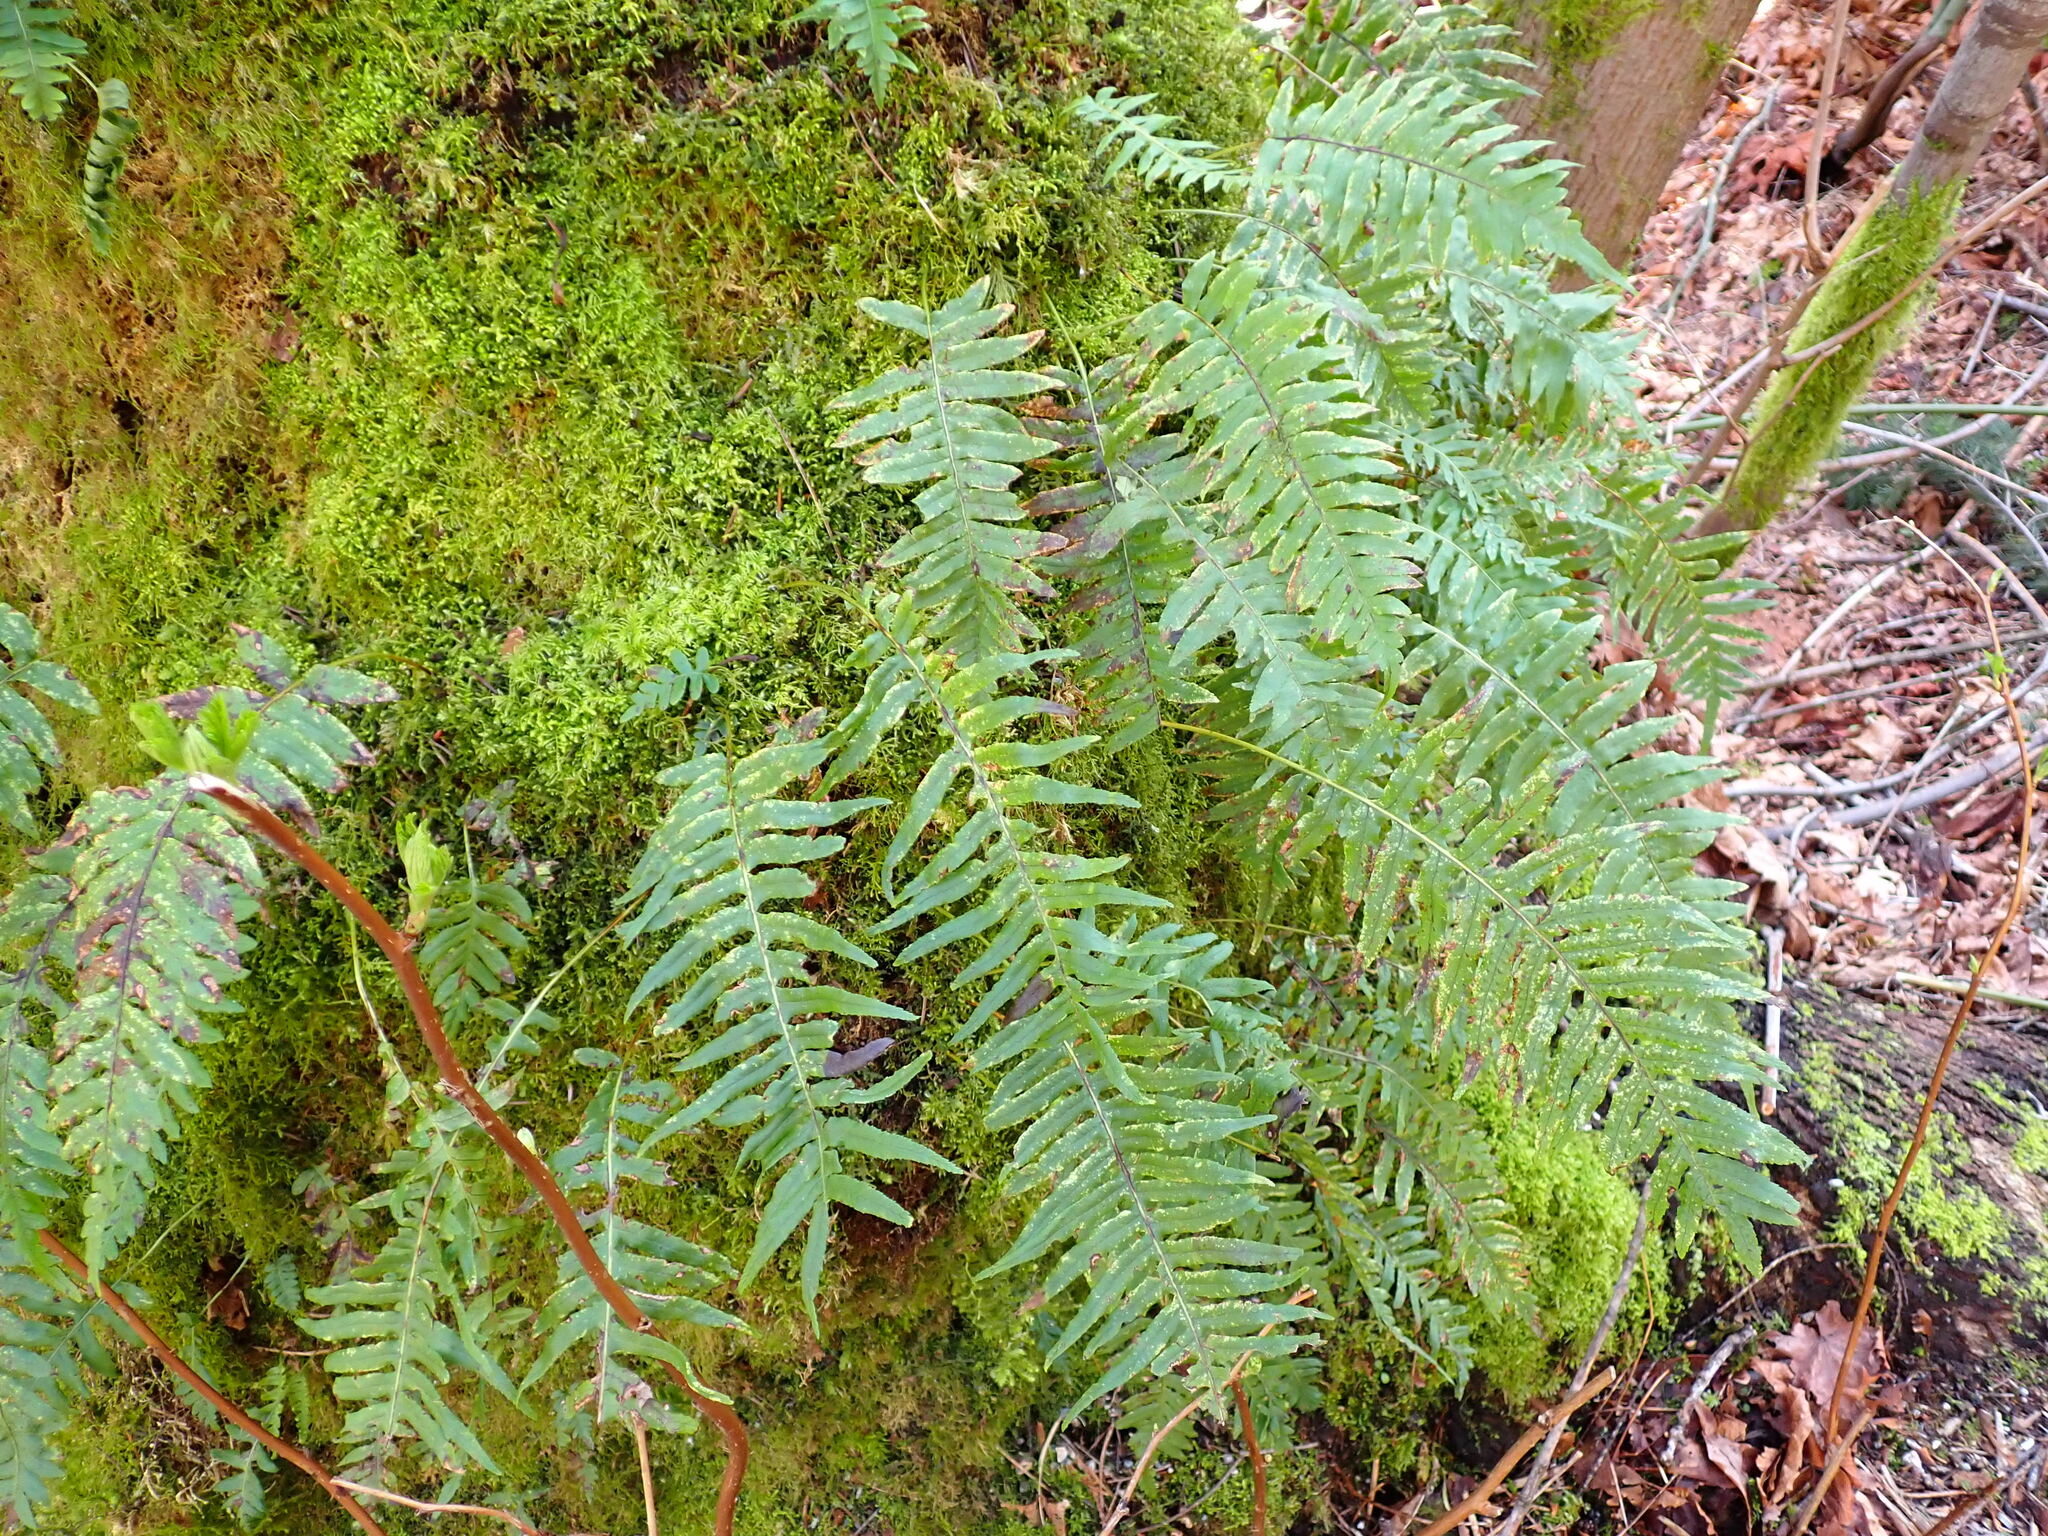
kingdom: Plantae
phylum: Tracheophyta
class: Polypodiopsida
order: Polypodiales
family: Polypodiaceae
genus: Polypodium
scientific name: Polypodium glycyrrhiza
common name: Licorice fern
